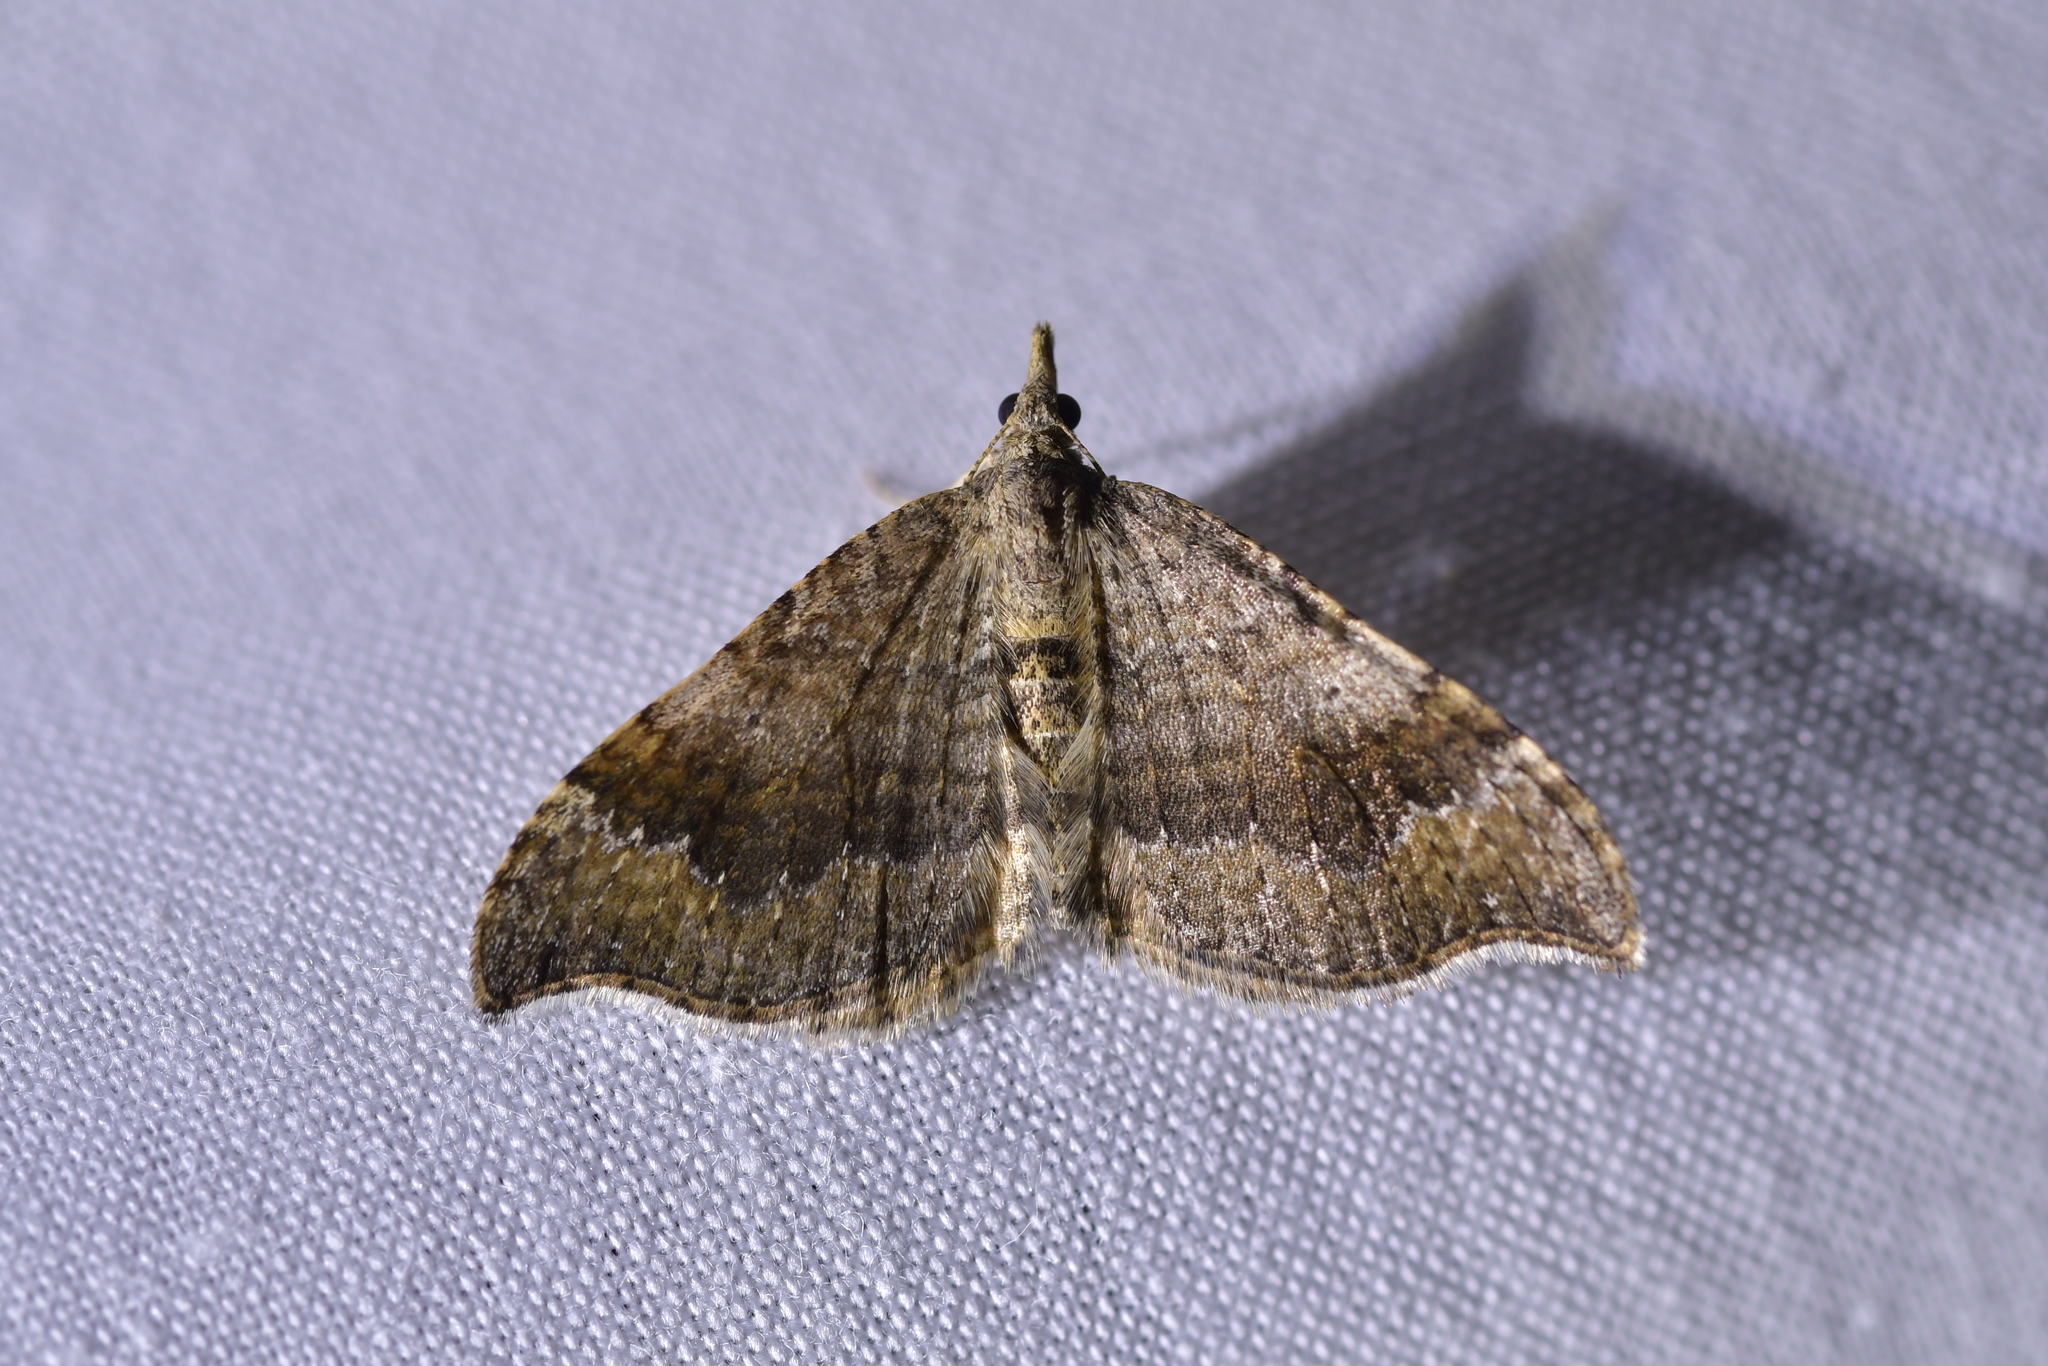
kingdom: Animalia
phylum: Arthropoda
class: Insecta
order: Lepidoptera
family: Geometridae
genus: Homodotis
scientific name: Homodotis megaspilata
